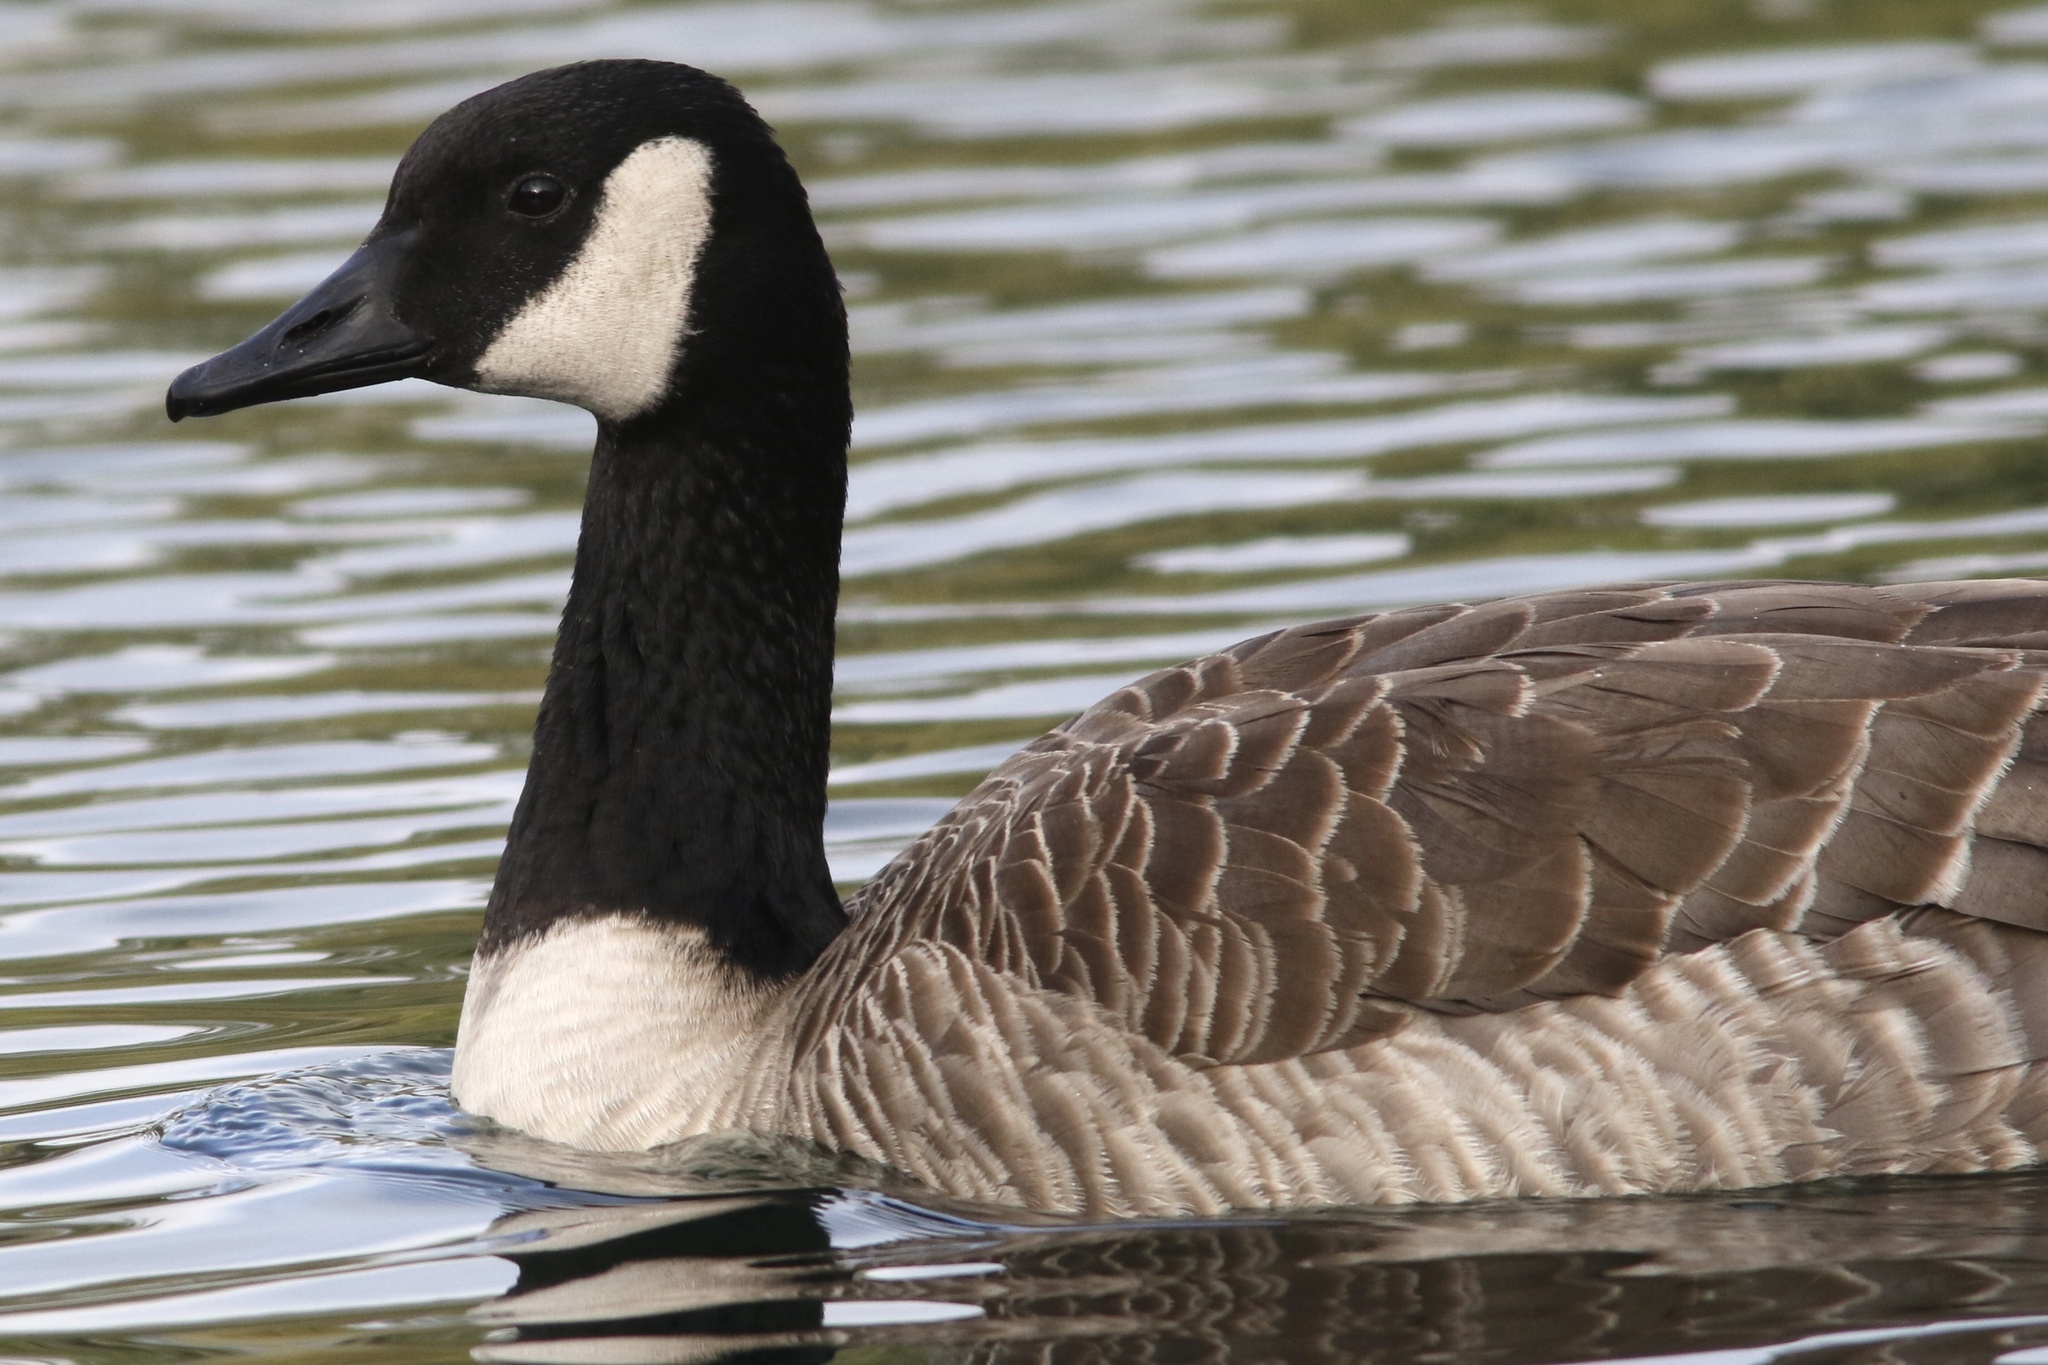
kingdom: Animalia
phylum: Chordata
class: Aves
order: Anseriformes
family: Anatidae
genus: Branta
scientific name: Branta canadensis
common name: Canada goose
